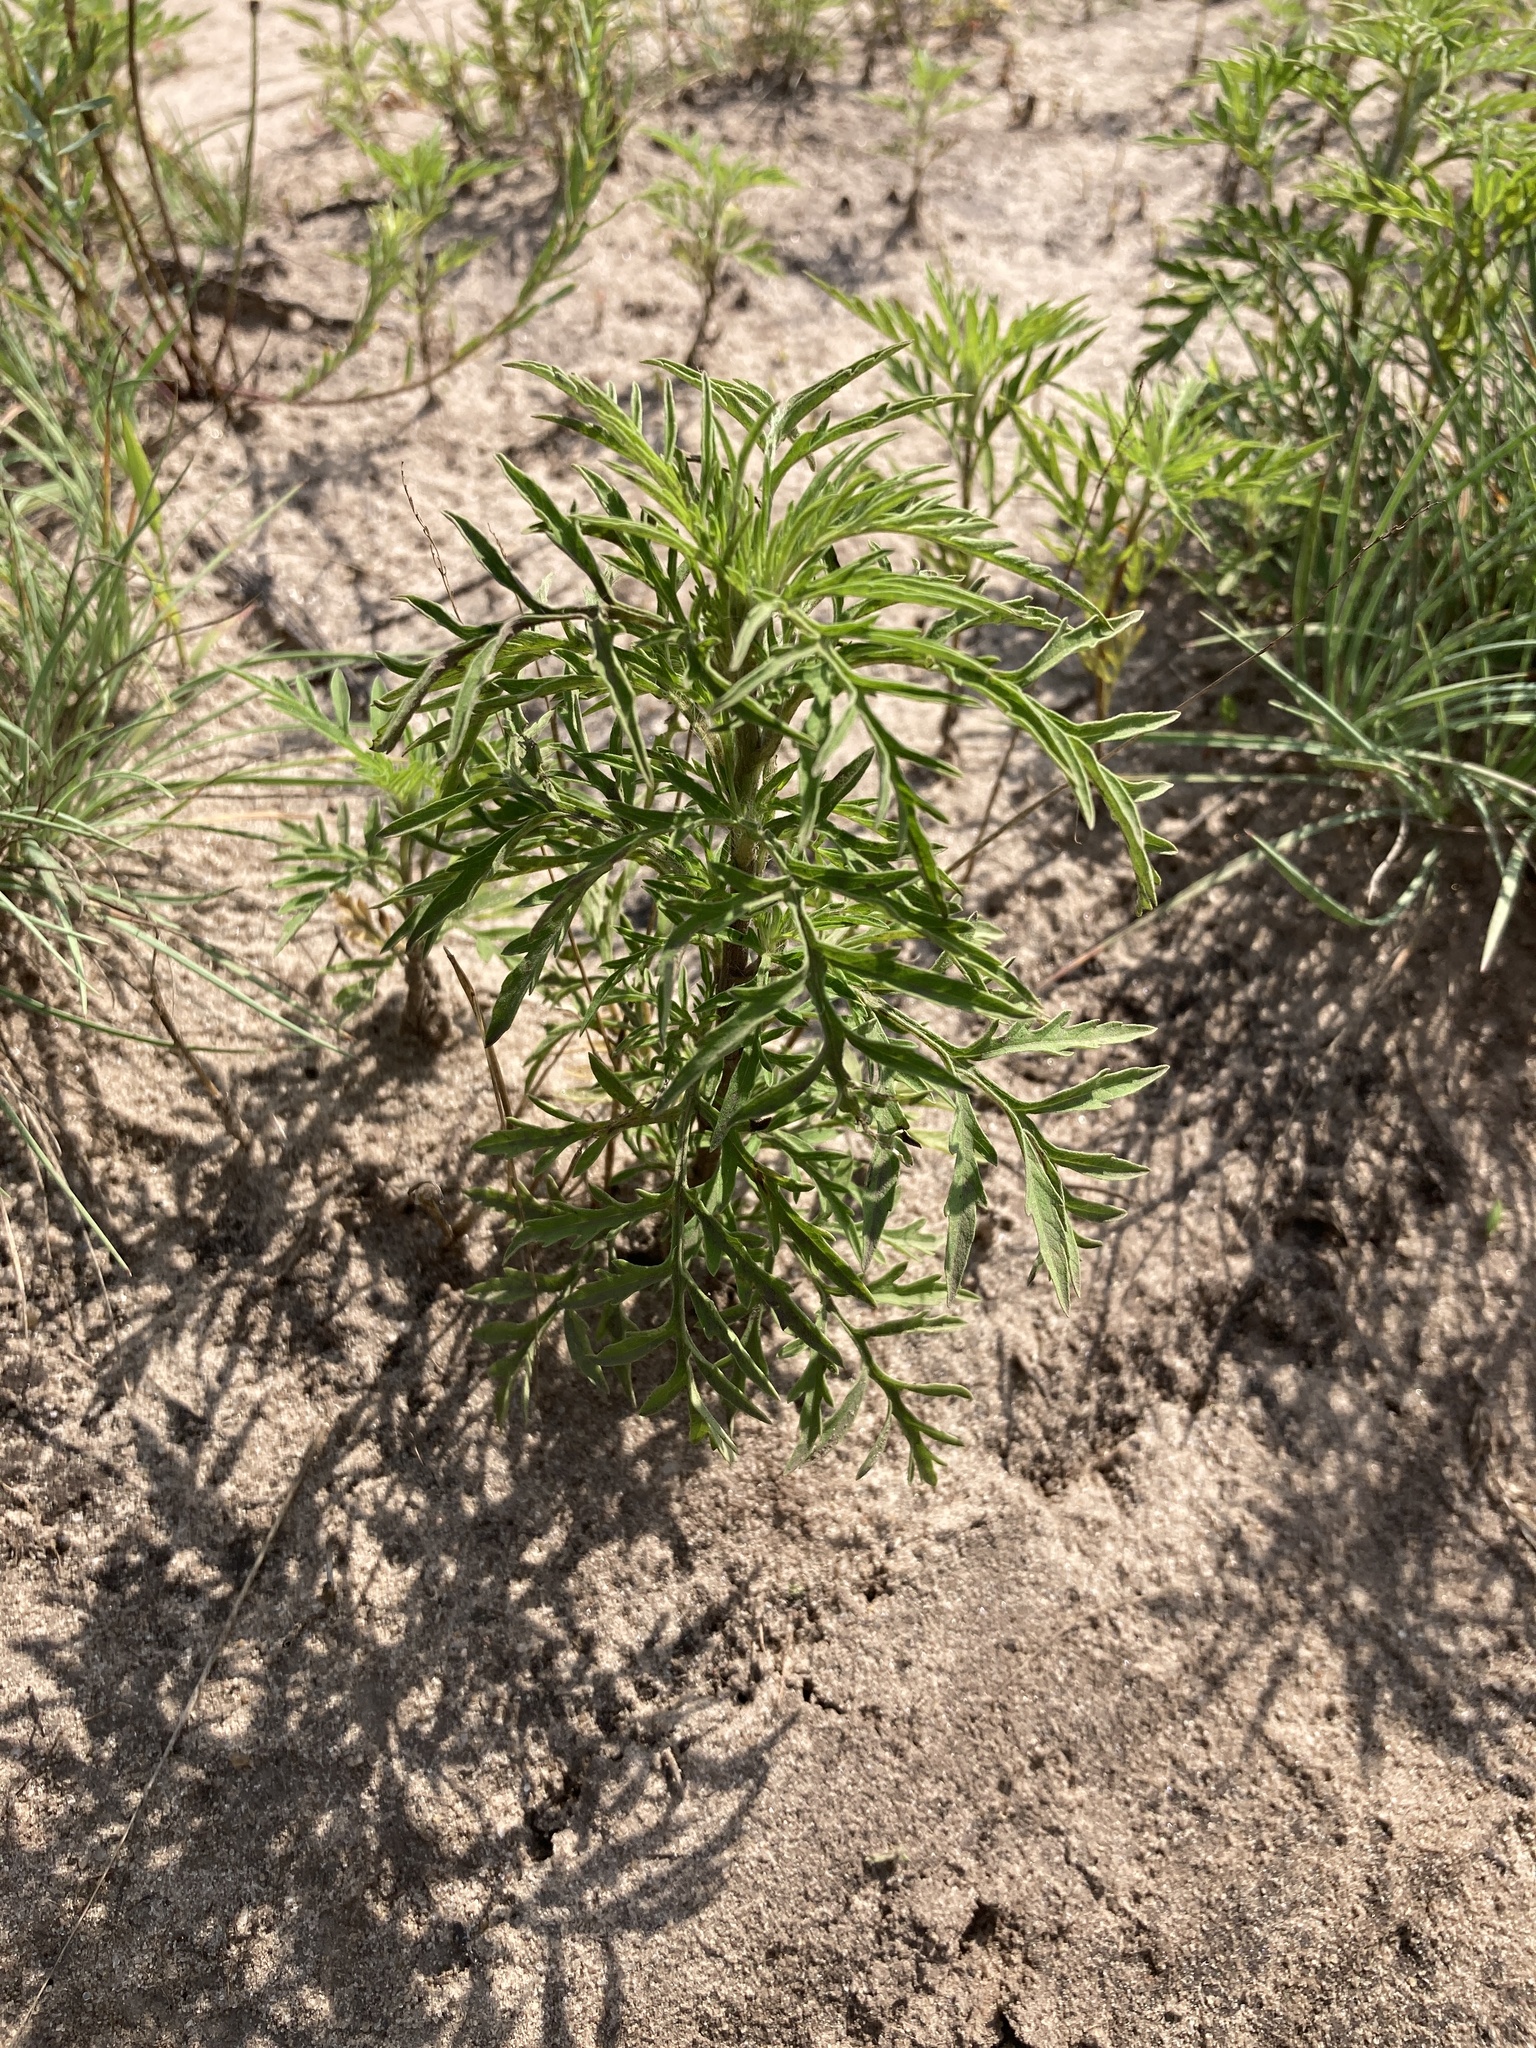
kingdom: Plantae
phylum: Tracheophyta
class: Magnoliopsida
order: Asterales
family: Asteraceae
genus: Ambrosia
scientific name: Ambrosia artemisiifolia
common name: Annual ragweed
